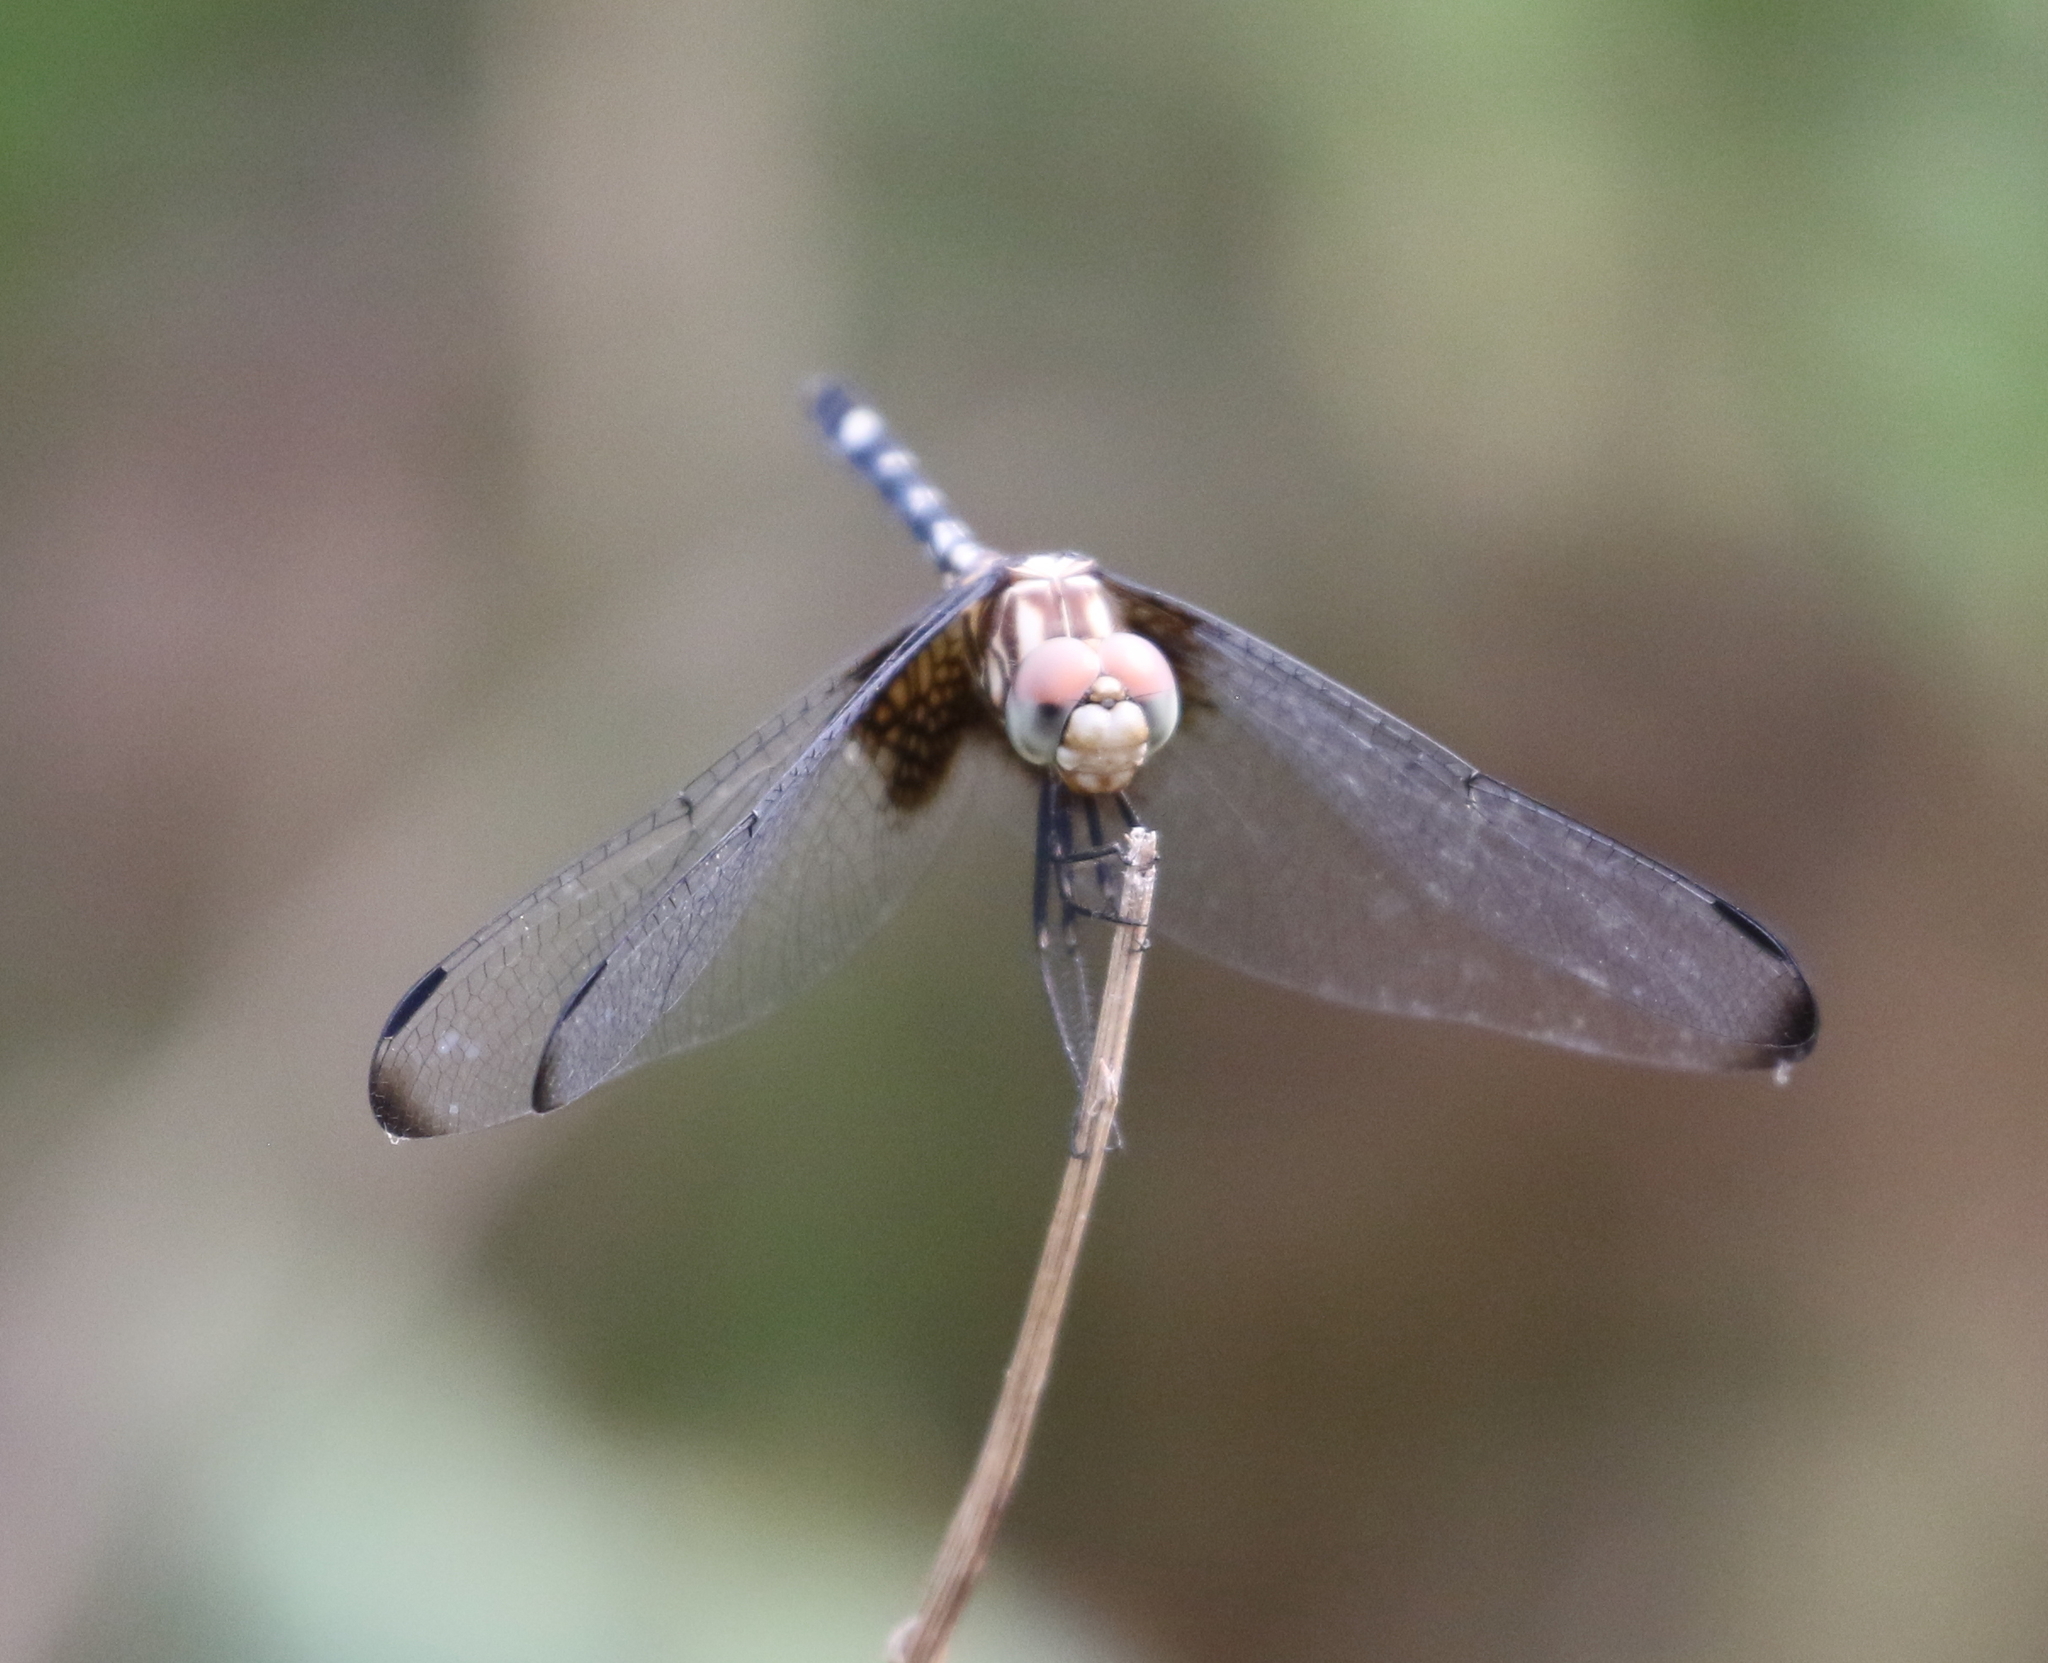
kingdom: Animalia
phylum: Arthropoda
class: Insecta
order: Odonata
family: Libellulidae
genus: Dythemis
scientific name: Dythemis fugax
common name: Checkered setwing
